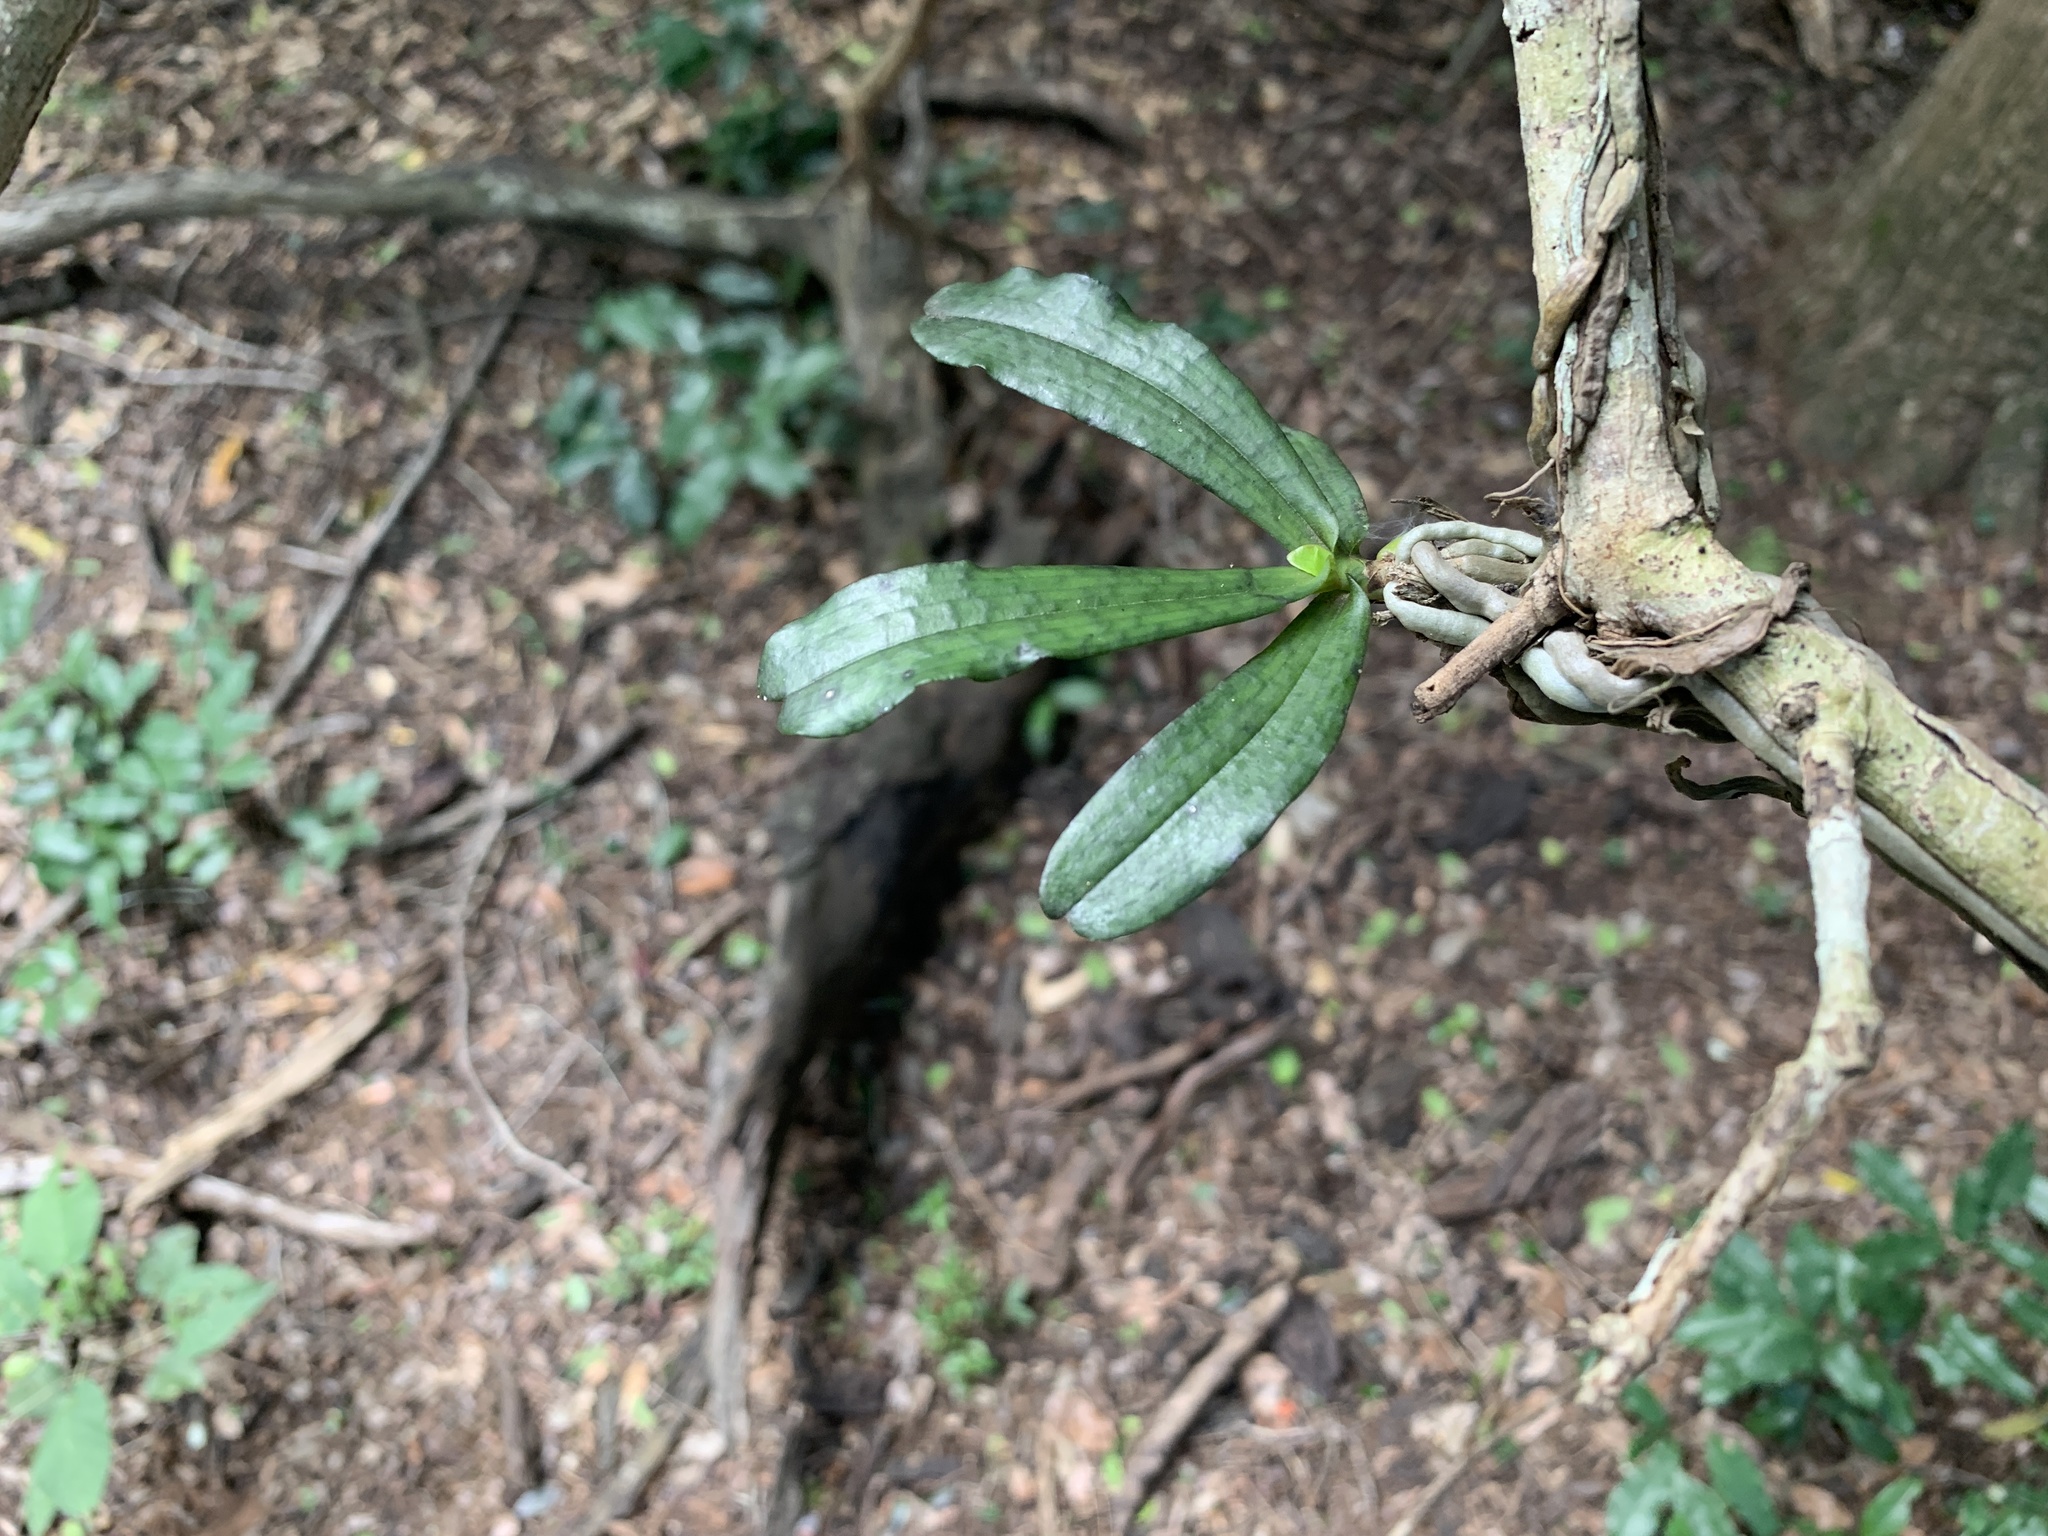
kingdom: Plantae
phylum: Tracheophyta
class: Liliopsida
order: Asparagales
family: Orchidaceae
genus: Aerangis
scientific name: Aerangis mystacidii
